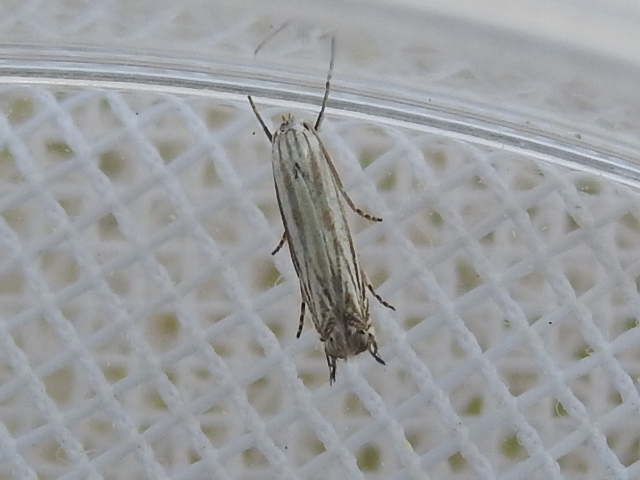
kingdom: Animalia
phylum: Arthropoda
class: Insecta
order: Lepidoptera
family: Gelechiidae
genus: Polyhymno
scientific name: Polyhymno luteostrigella
